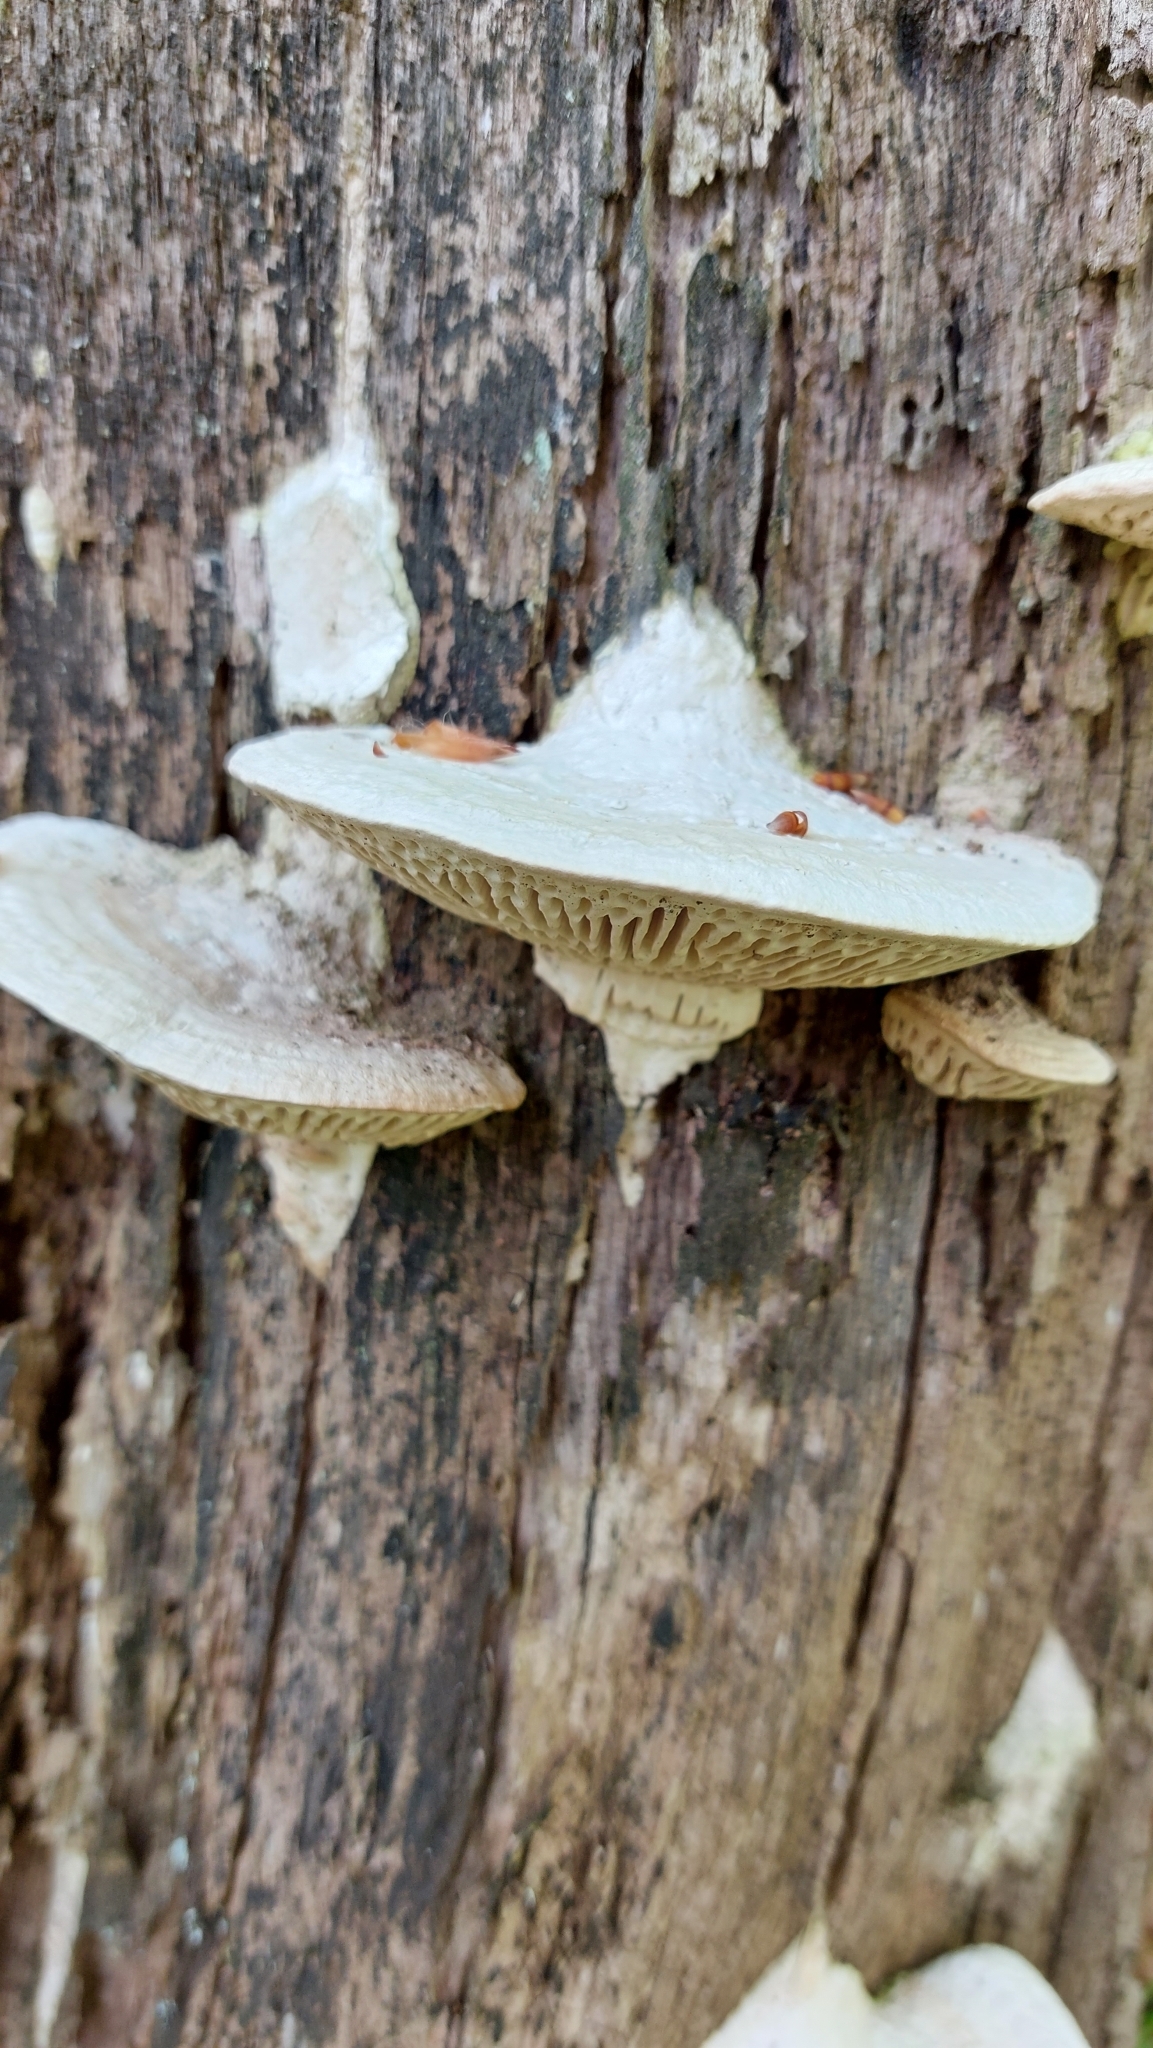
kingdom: Fungi
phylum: Basidiomycota
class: Agaricomycetes
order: Polyporales
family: Fomitopsidaceae
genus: Fomitopsis
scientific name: Fomitopsis
